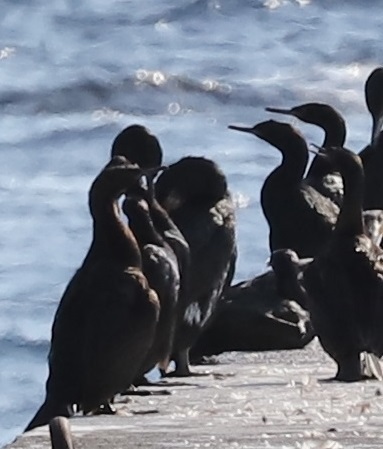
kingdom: Animalia
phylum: Chordata
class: Aves
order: Suliformes
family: Phalacrocoracidae
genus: Phalacrocorax
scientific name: Phalacrocorax pelagicus
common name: Pelagic cormorant
